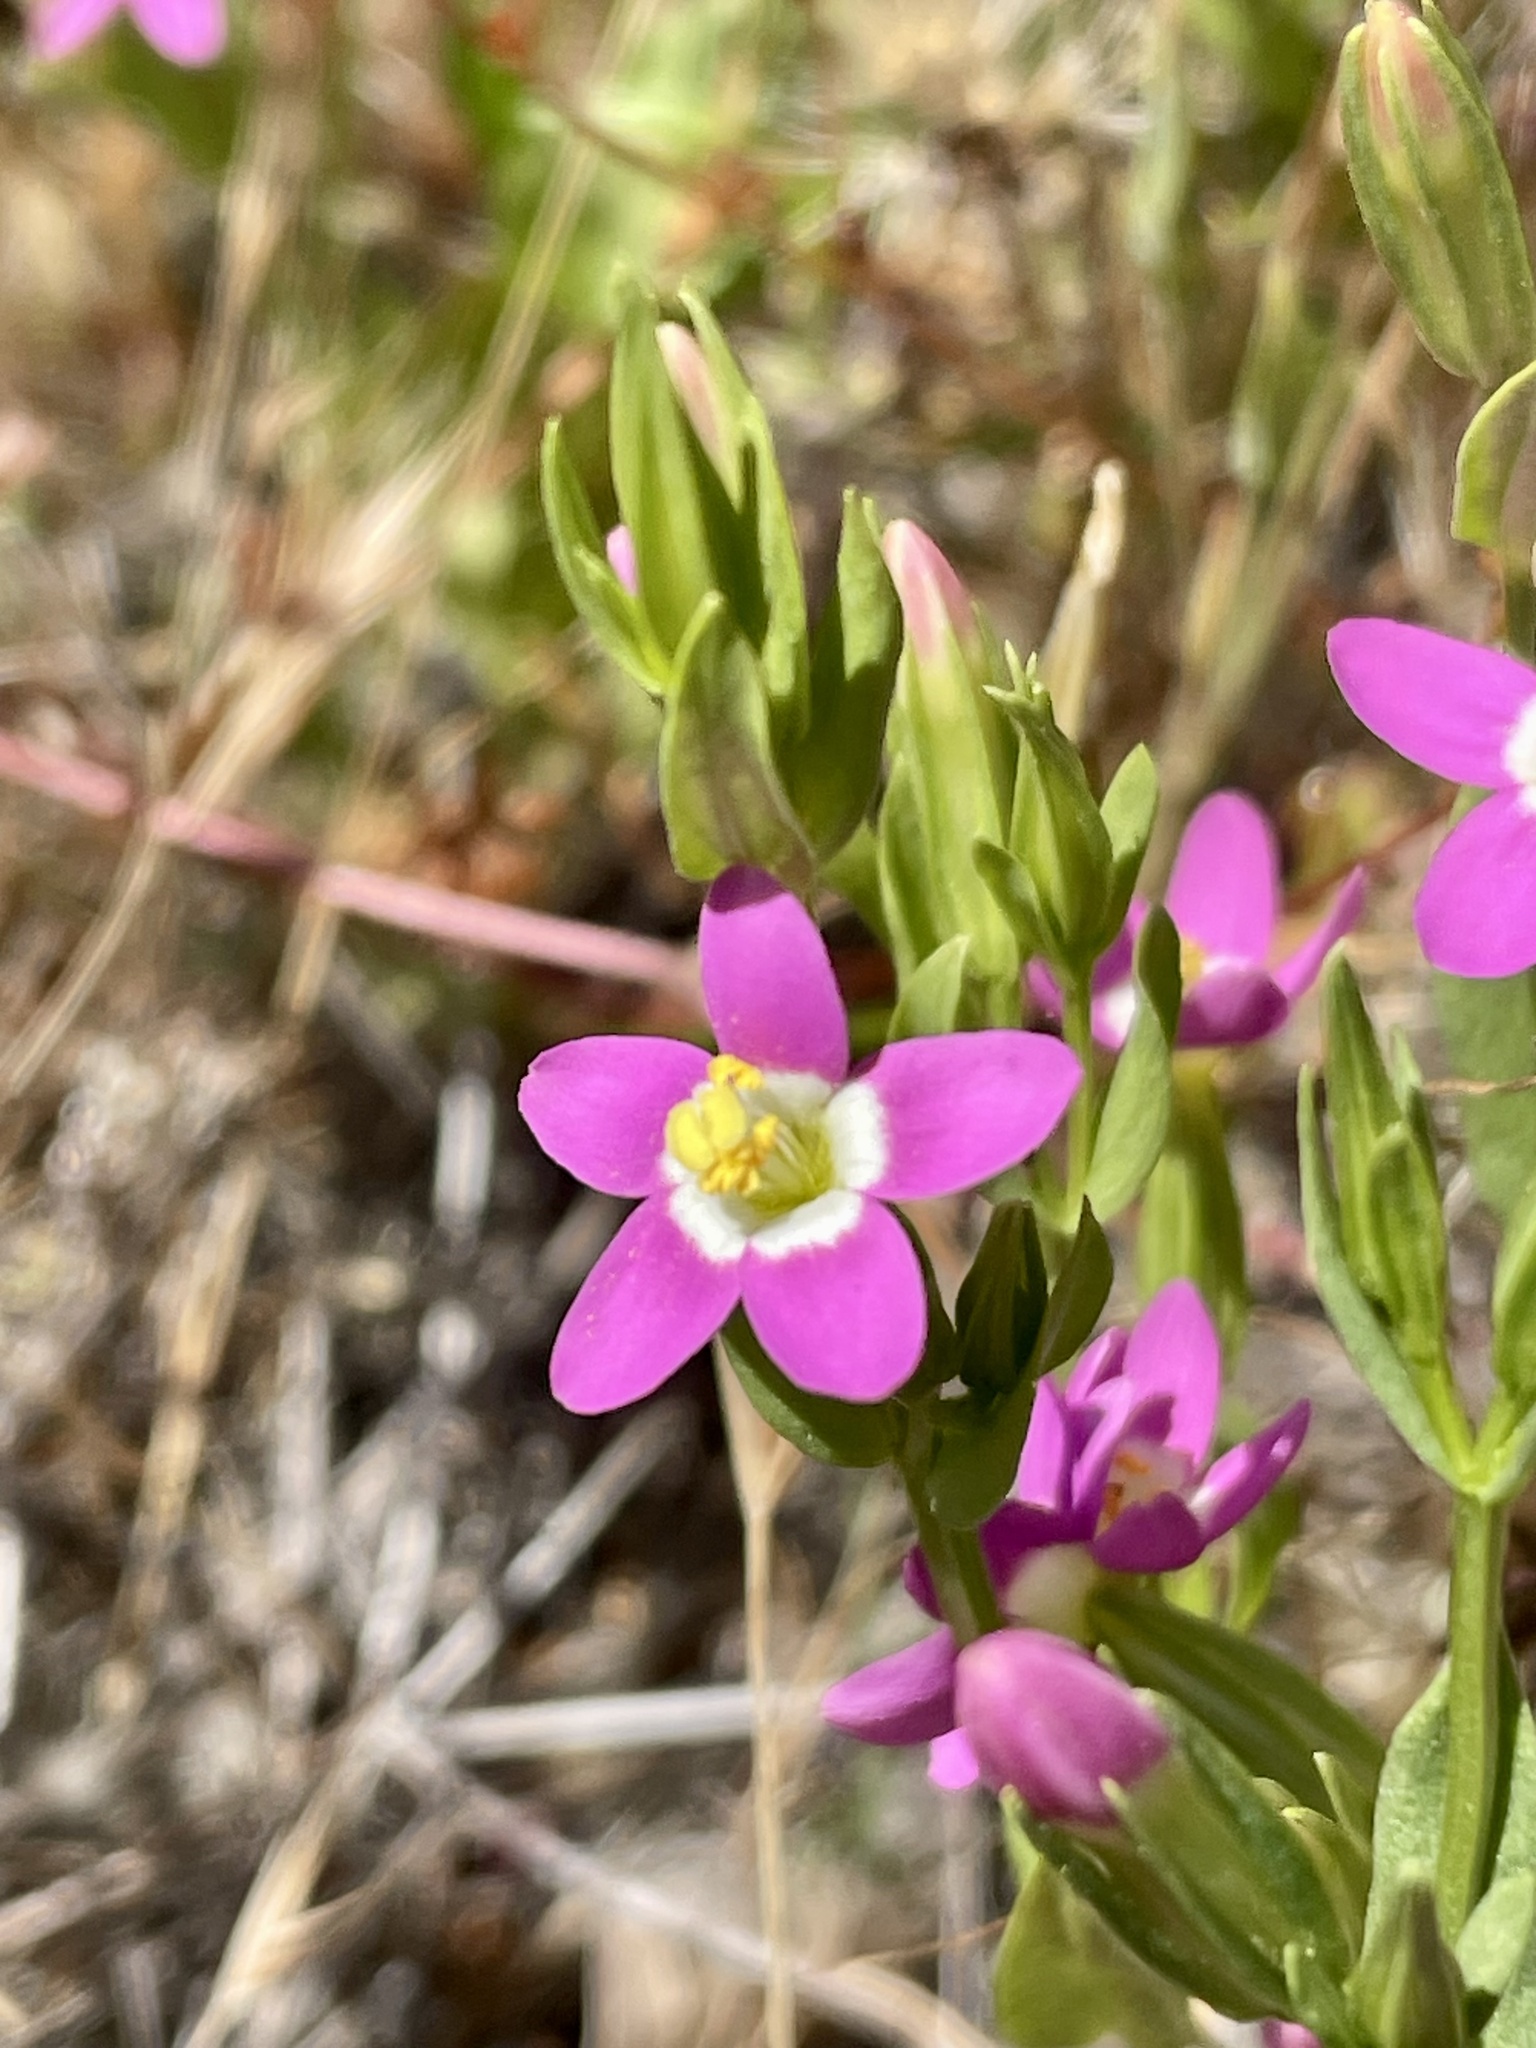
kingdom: Plantae
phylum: Tracheophyta
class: Magnoliopsida
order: Gentianales
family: Gentianaceae
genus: Zeltnera
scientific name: Zeltnera davyi
